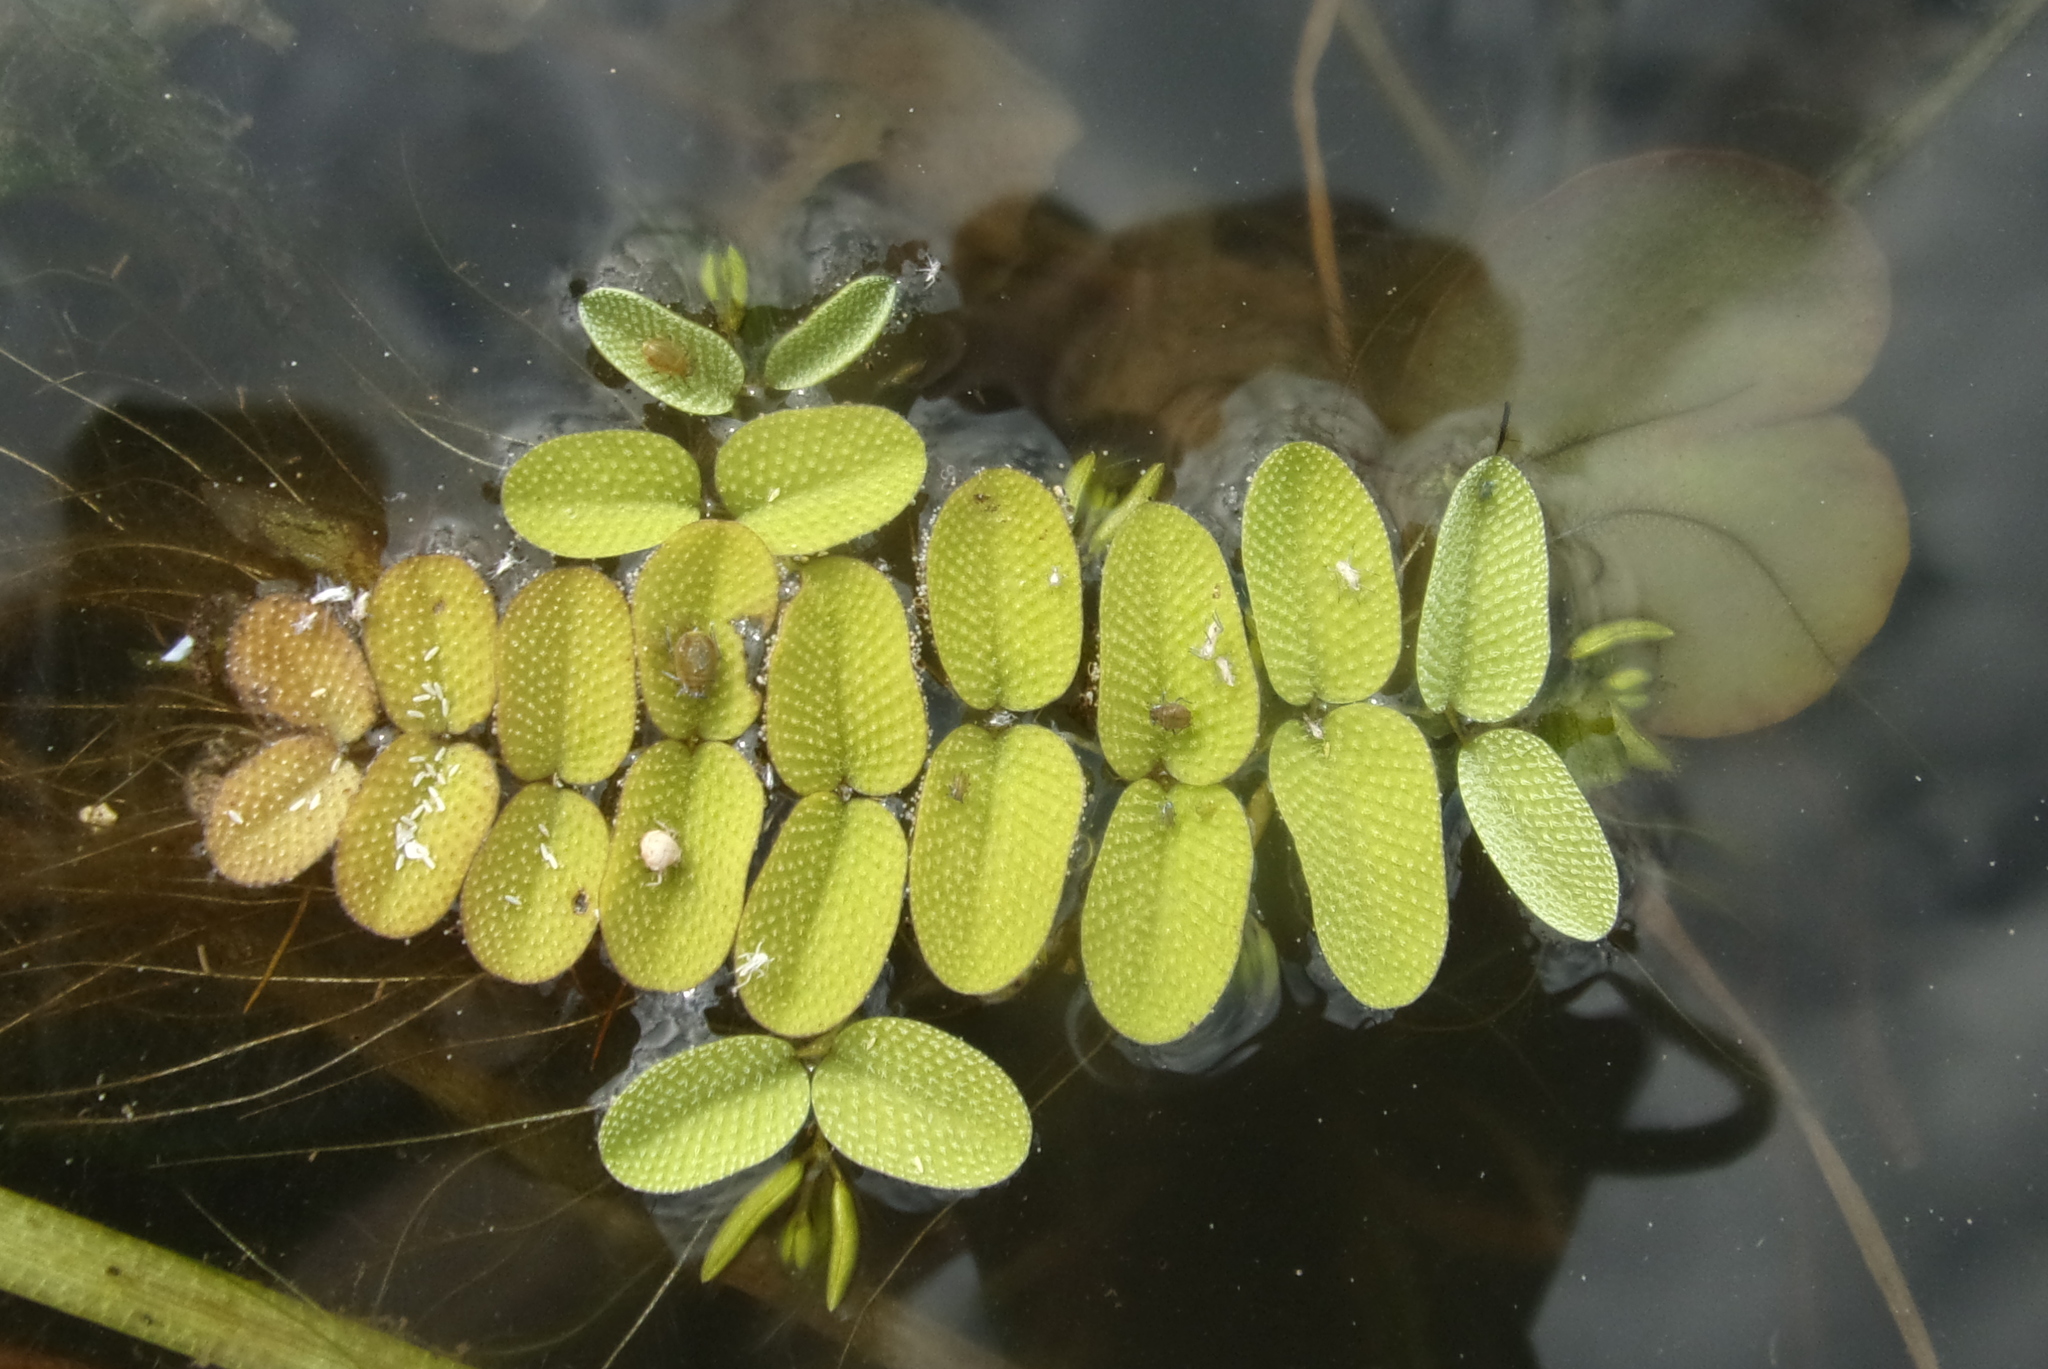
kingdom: Plantae
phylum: Tracheophyta
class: Polypodiopsida
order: Salviniales
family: Salviniaceae
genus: Salvinia
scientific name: Salvinia natans
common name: Floating fern
